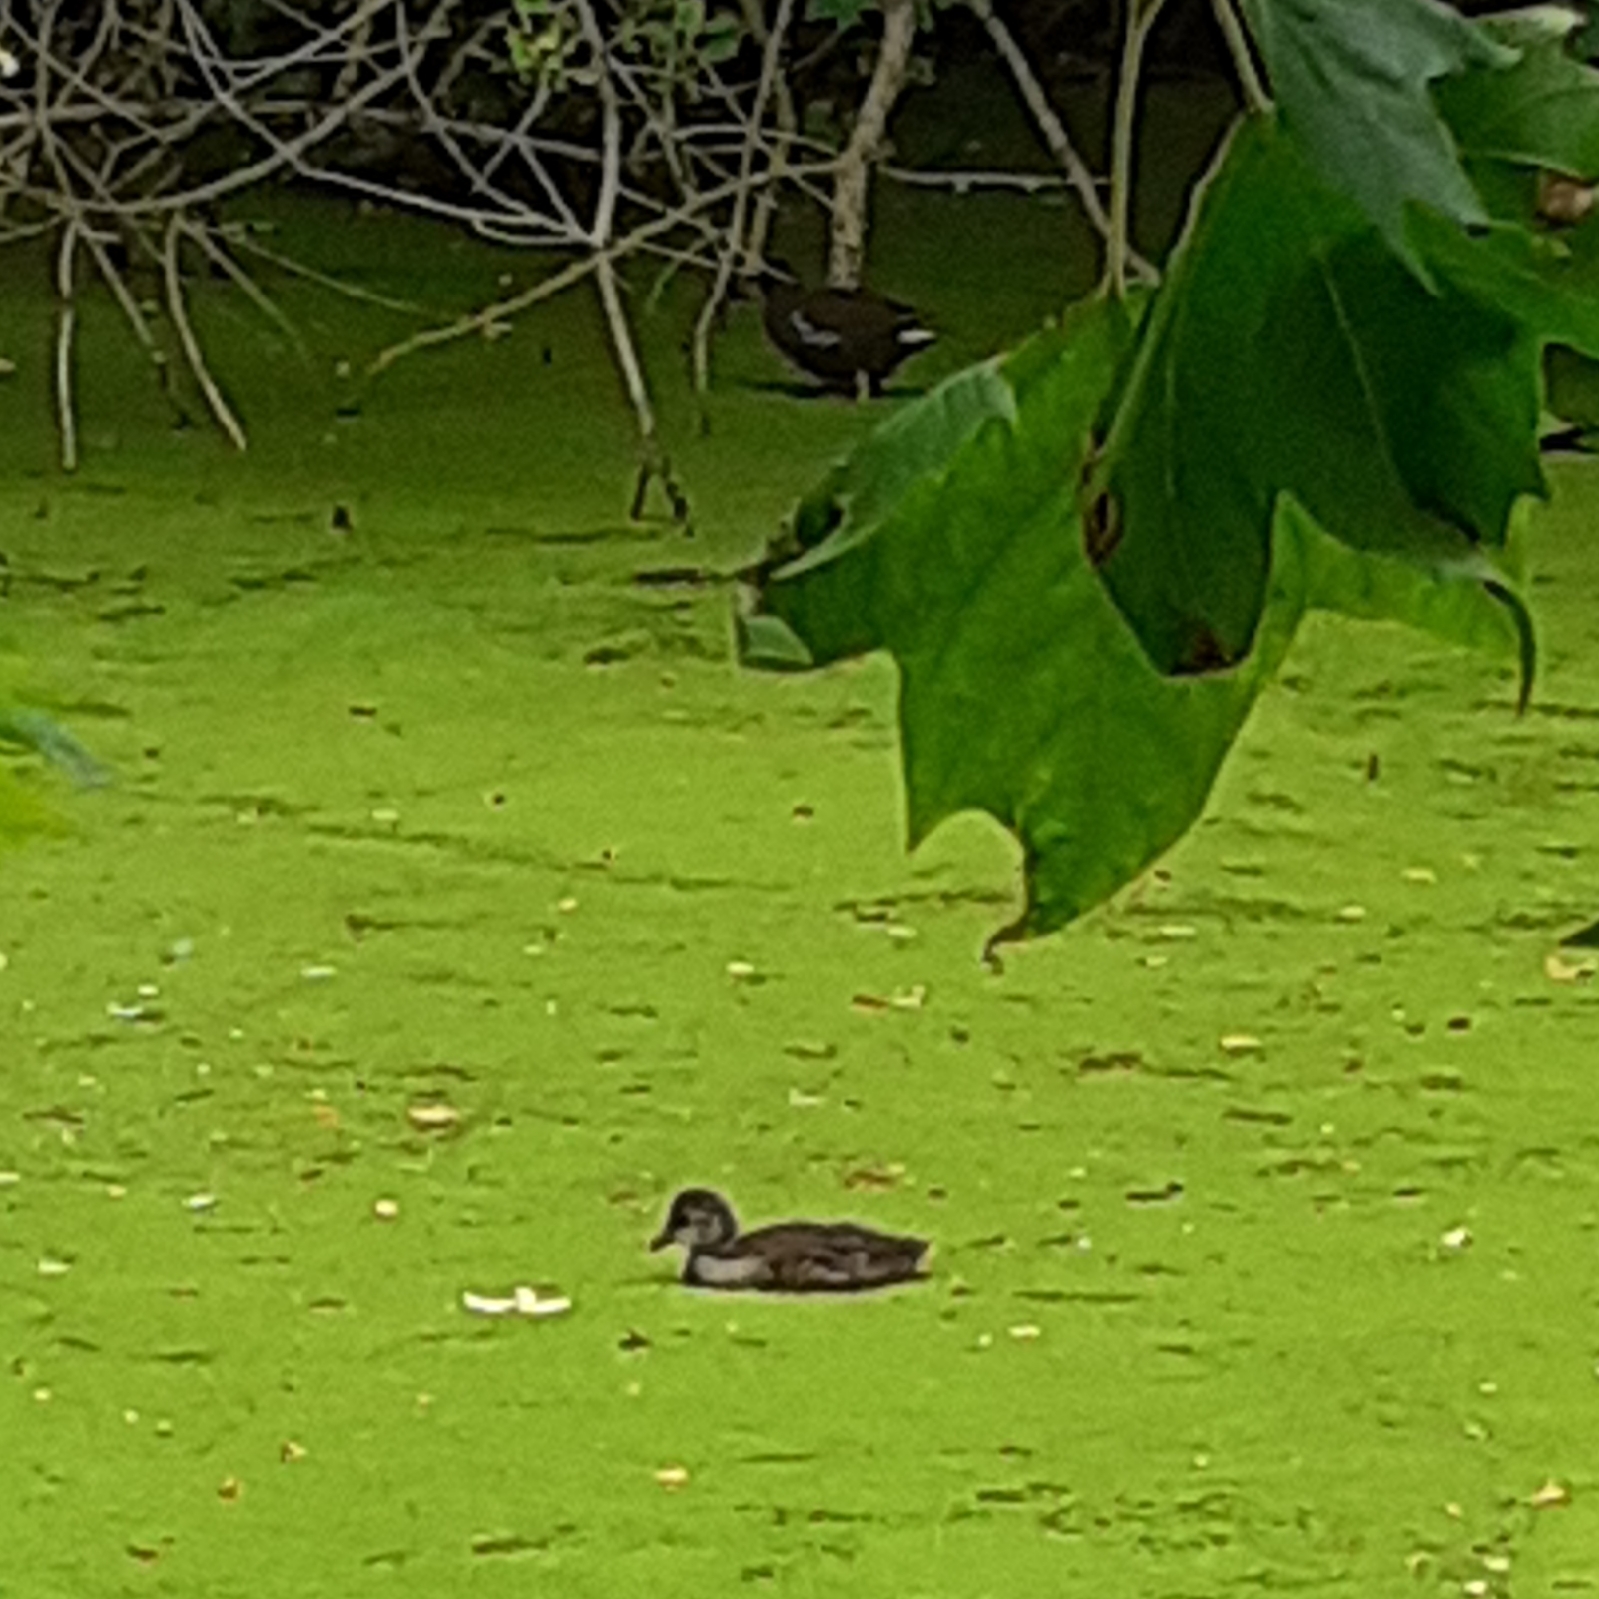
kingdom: Animalia
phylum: Chordata
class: Aves
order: Gruiformes
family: Rallidae
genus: Gallinula
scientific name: Gallinula chloropus
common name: Common moorhen
